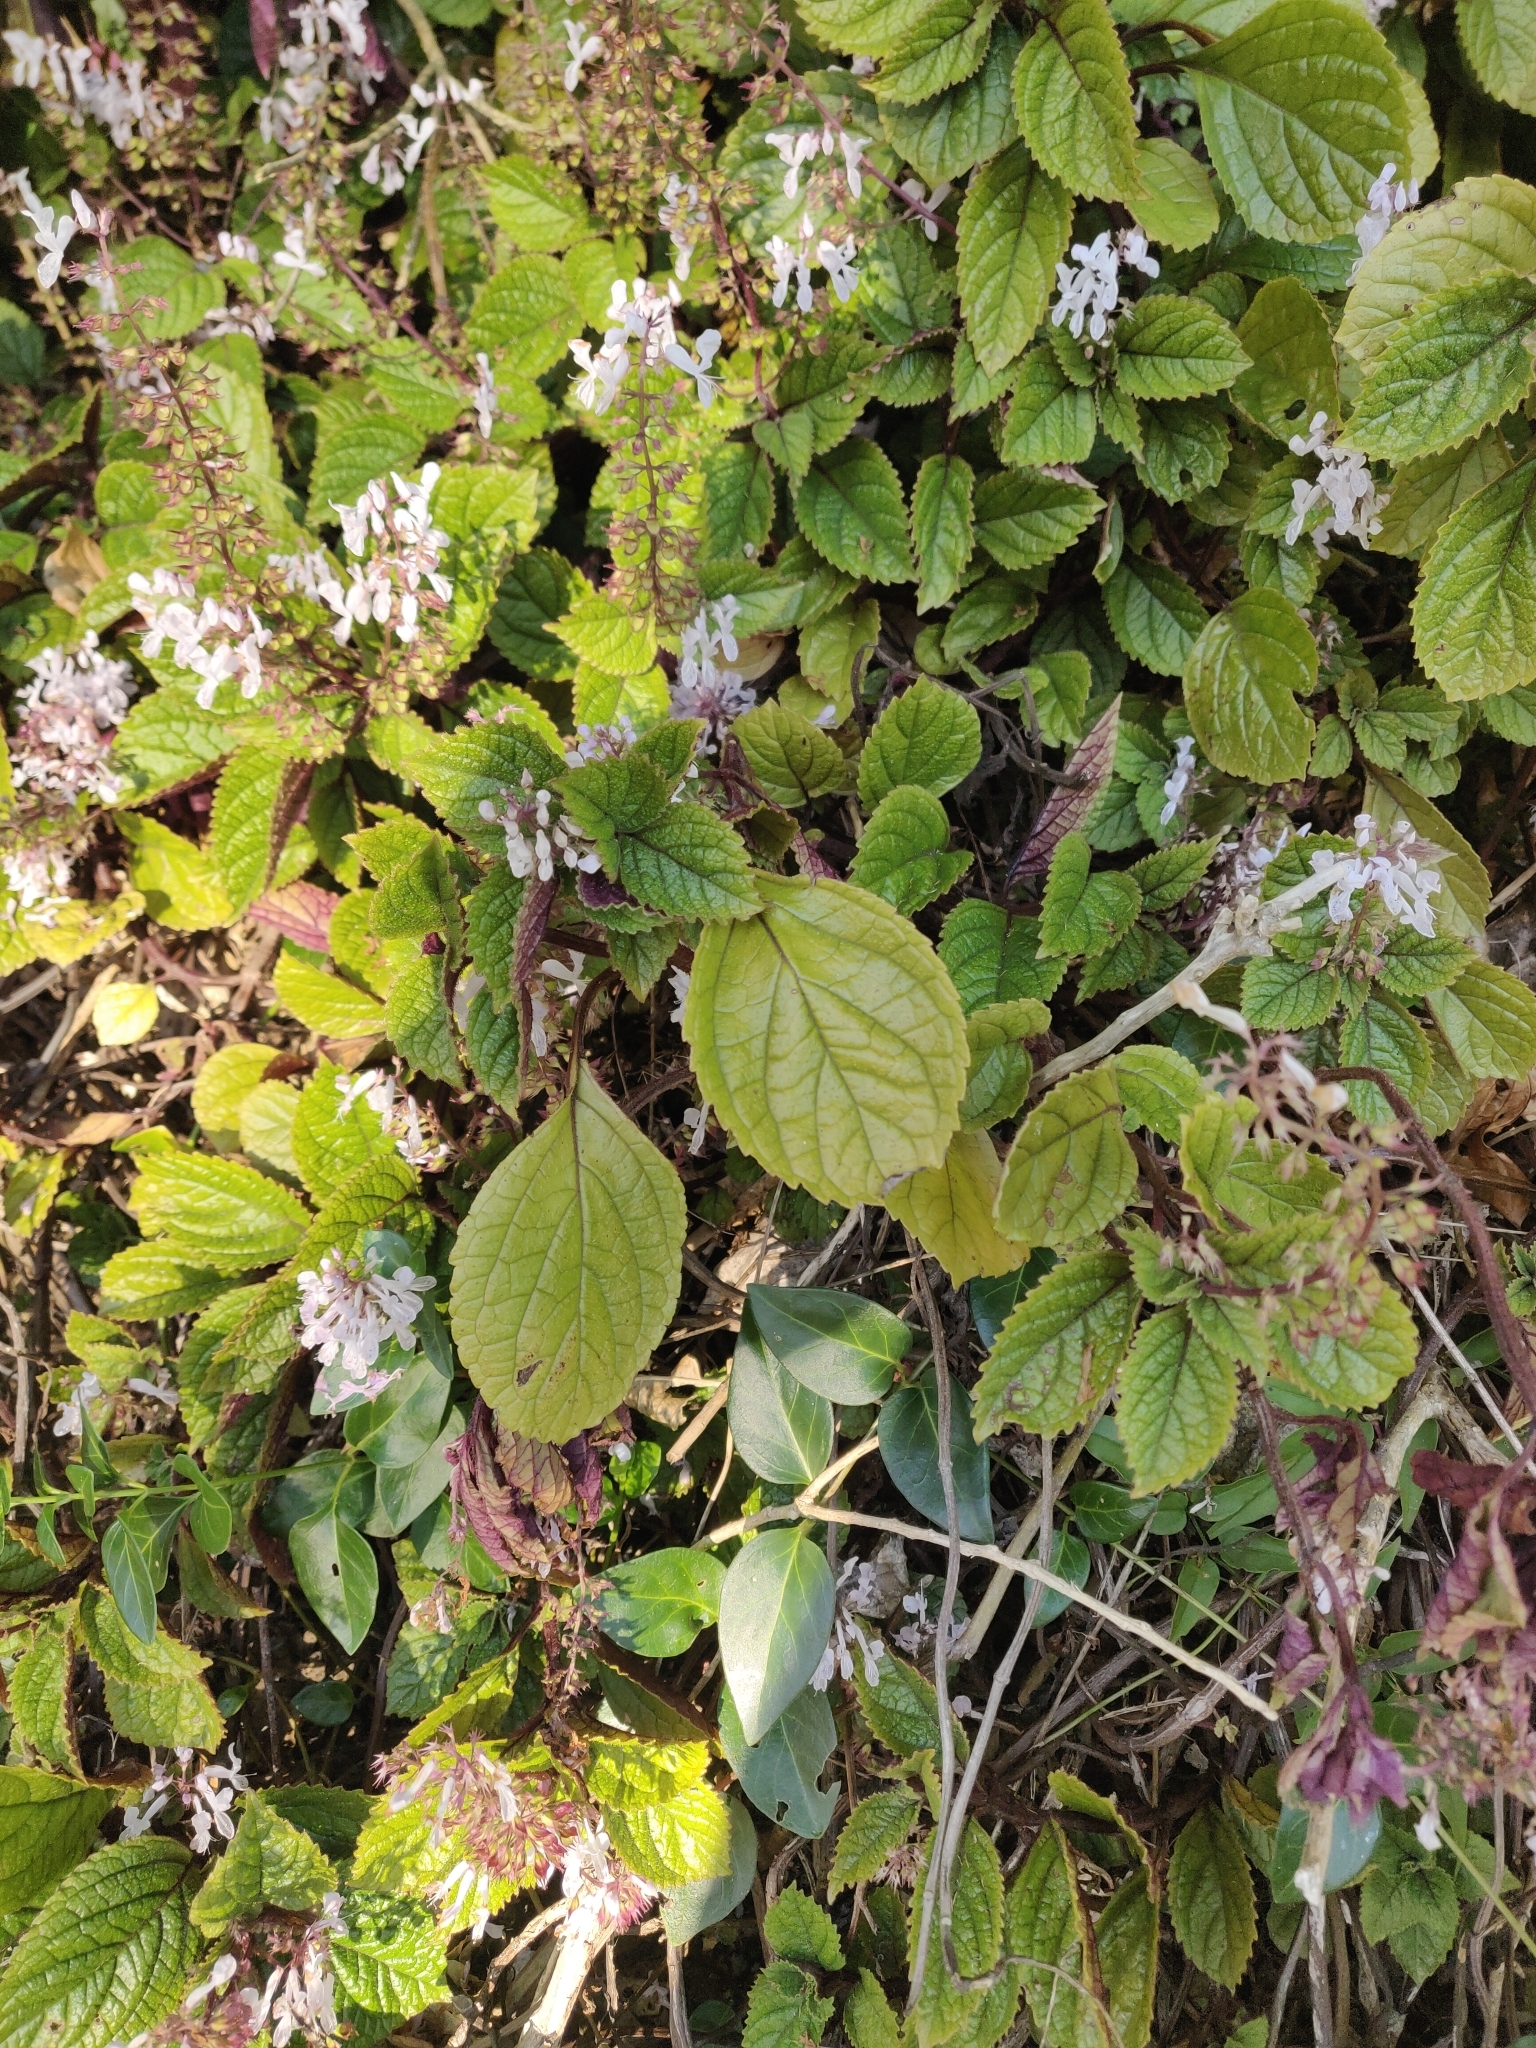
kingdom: Plantae
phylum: Tracheophyta
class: Magnoliopsida
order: Lamiales
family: Lamiaceae
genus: Plectranthus
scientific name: Plectranthus ciliatus
